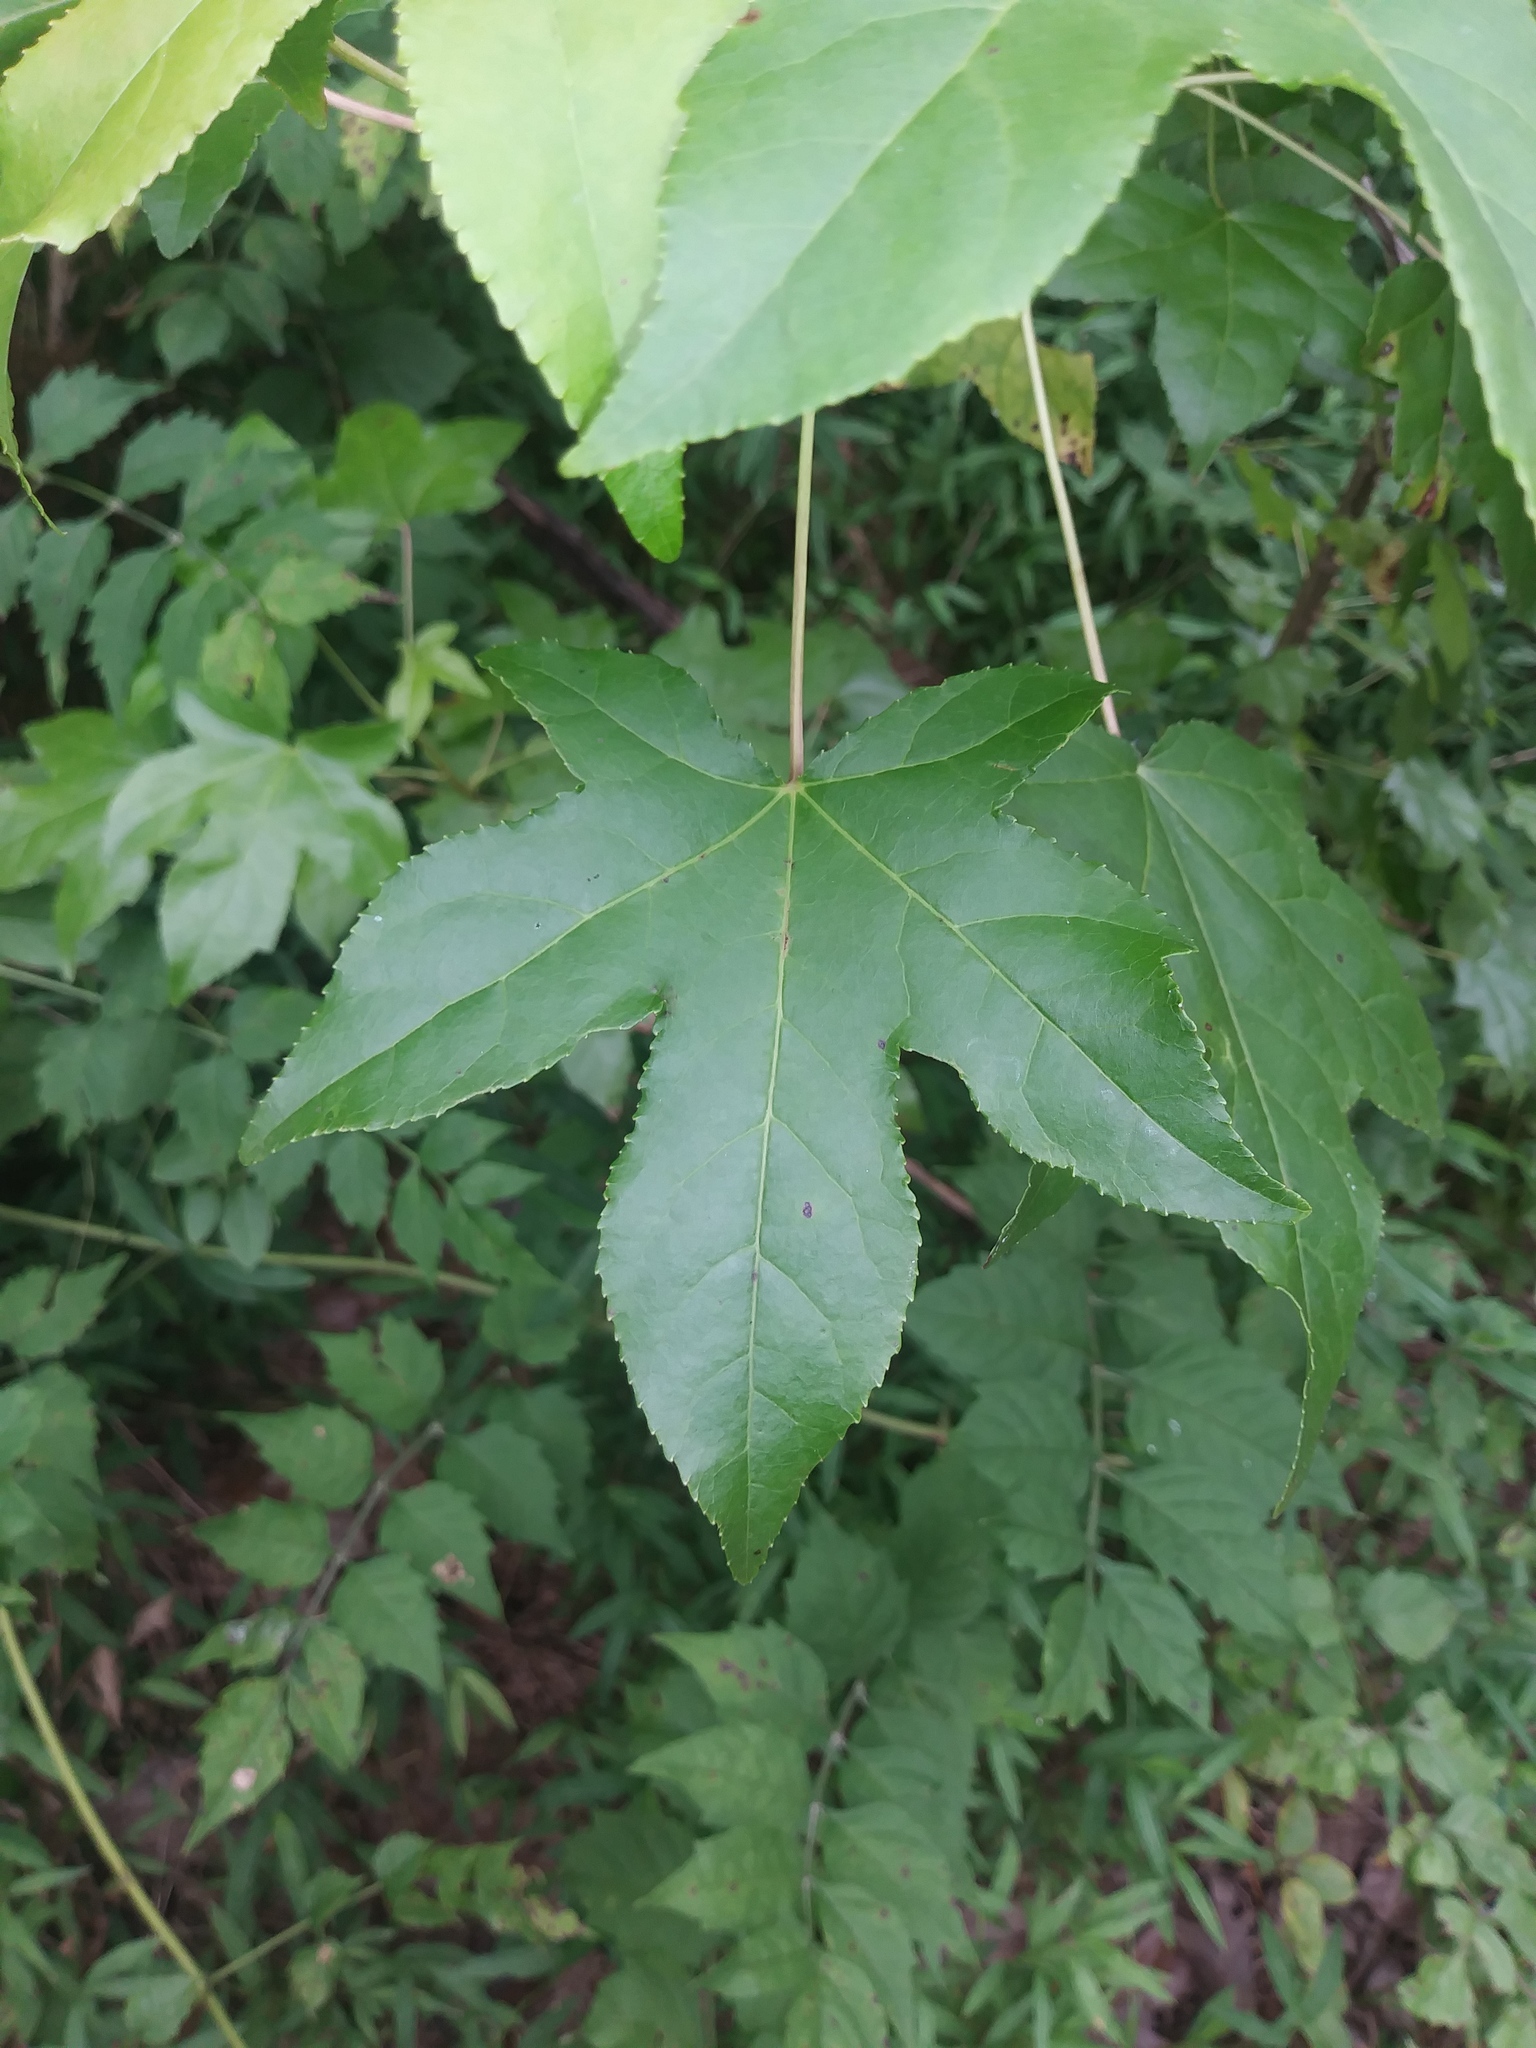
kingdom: Plantae
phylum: Tracheophyta
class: Magnoliopsida
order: Saxifragales
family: Altingiaceae
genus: Liquidambar
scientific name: Liquidambar styraciflua
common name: Sweet gum
